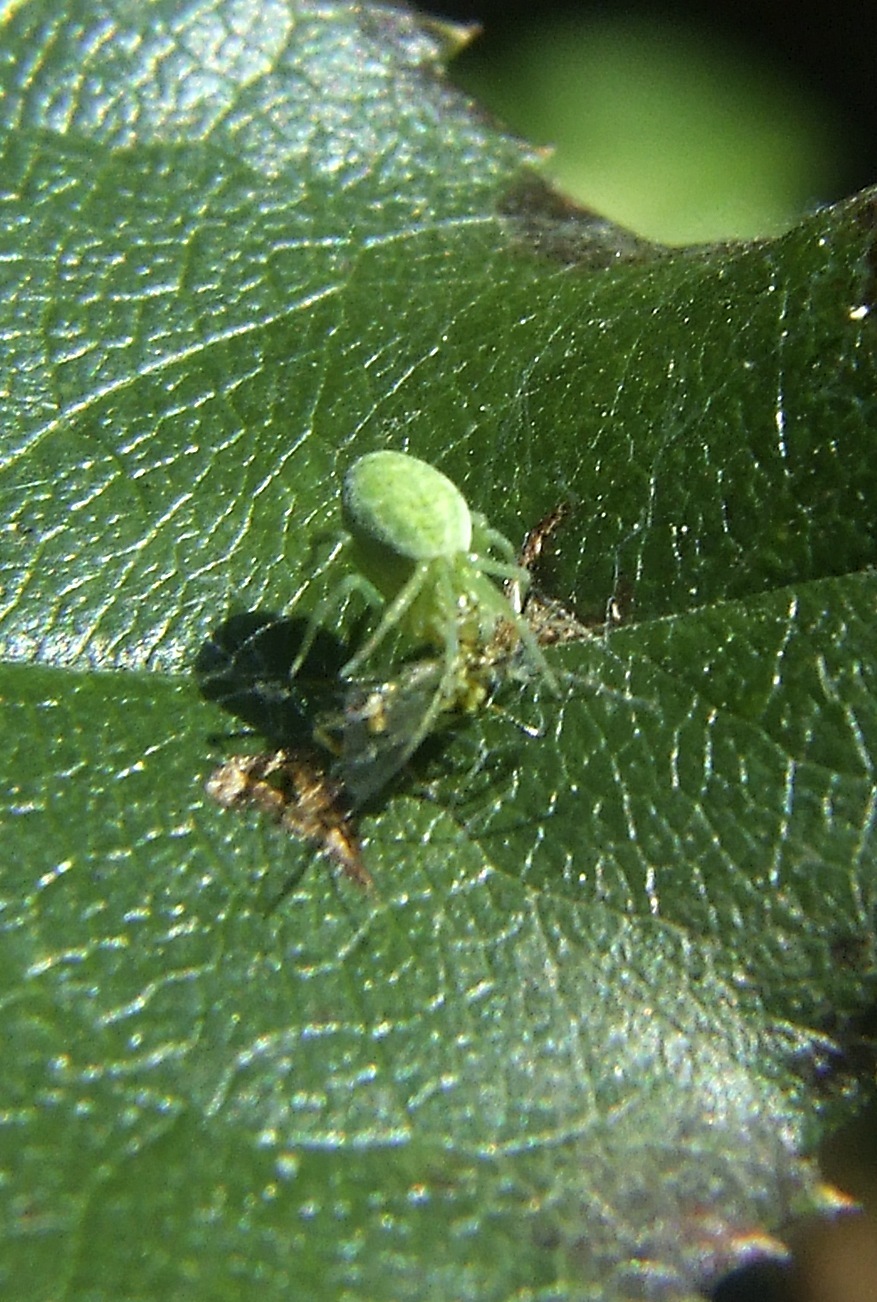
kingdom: Animalia
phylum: Arthropoda
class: Arachnida
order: Araneae
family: Dictynidae
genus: Nigma
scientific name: Nigma walckenaeri
